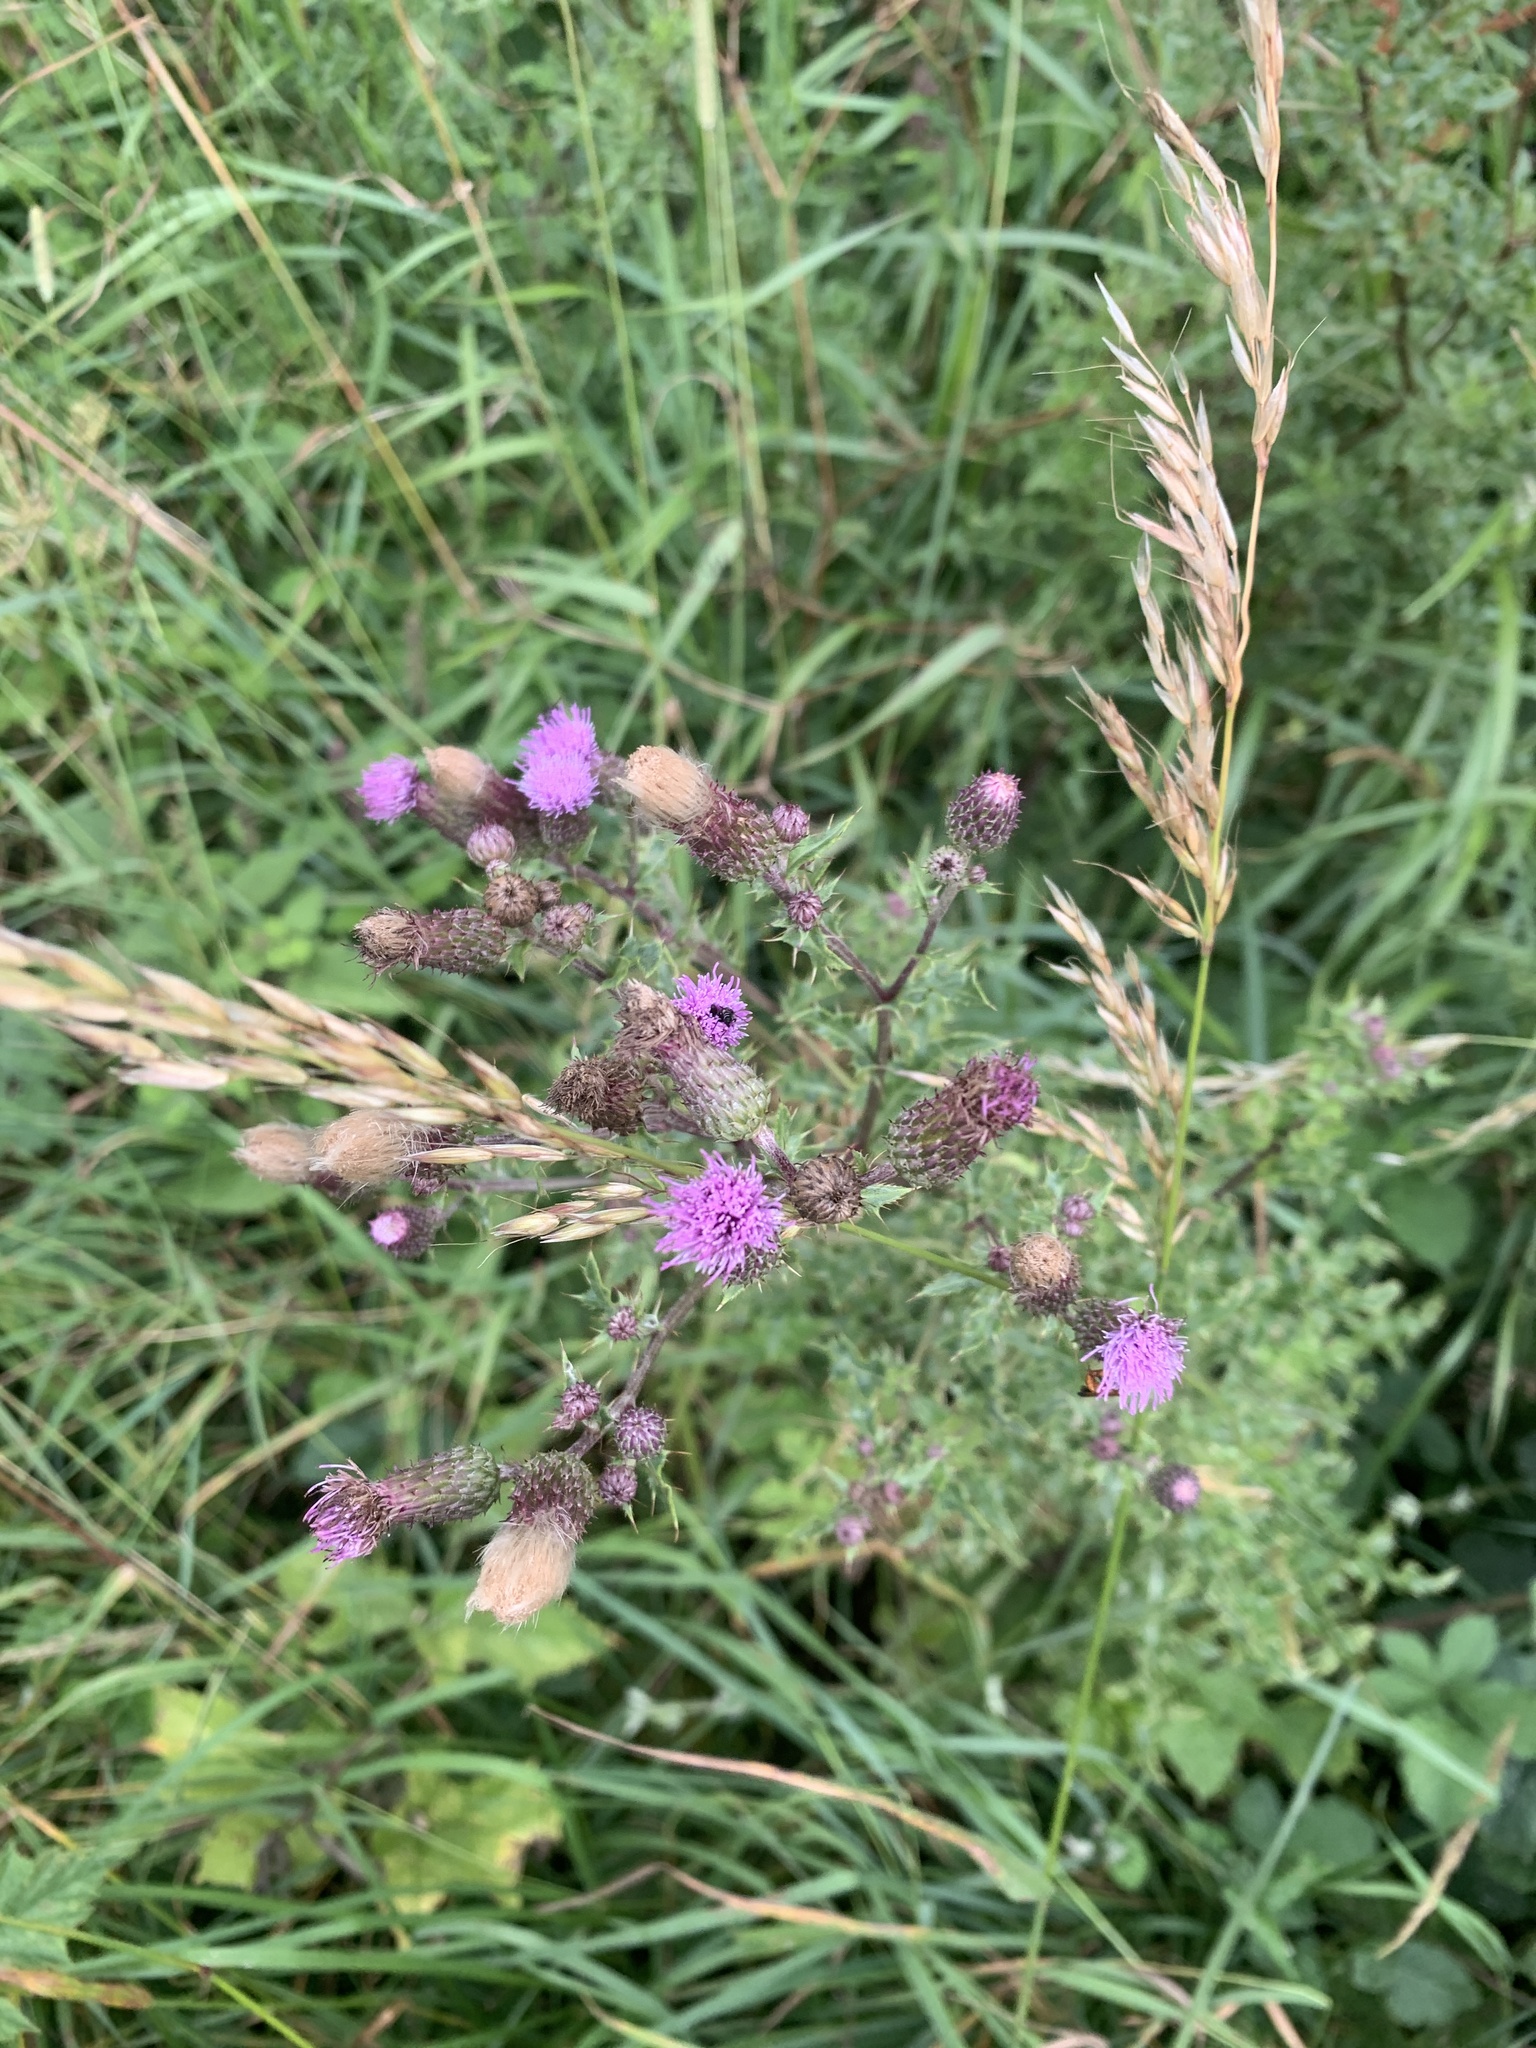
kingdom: Plantae
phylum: Tracheophyta
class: Magnoliopsida
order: Asterales
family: Asteraceae
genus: Cirsium
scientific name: Cirsium arvense
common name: Creeping thistle
